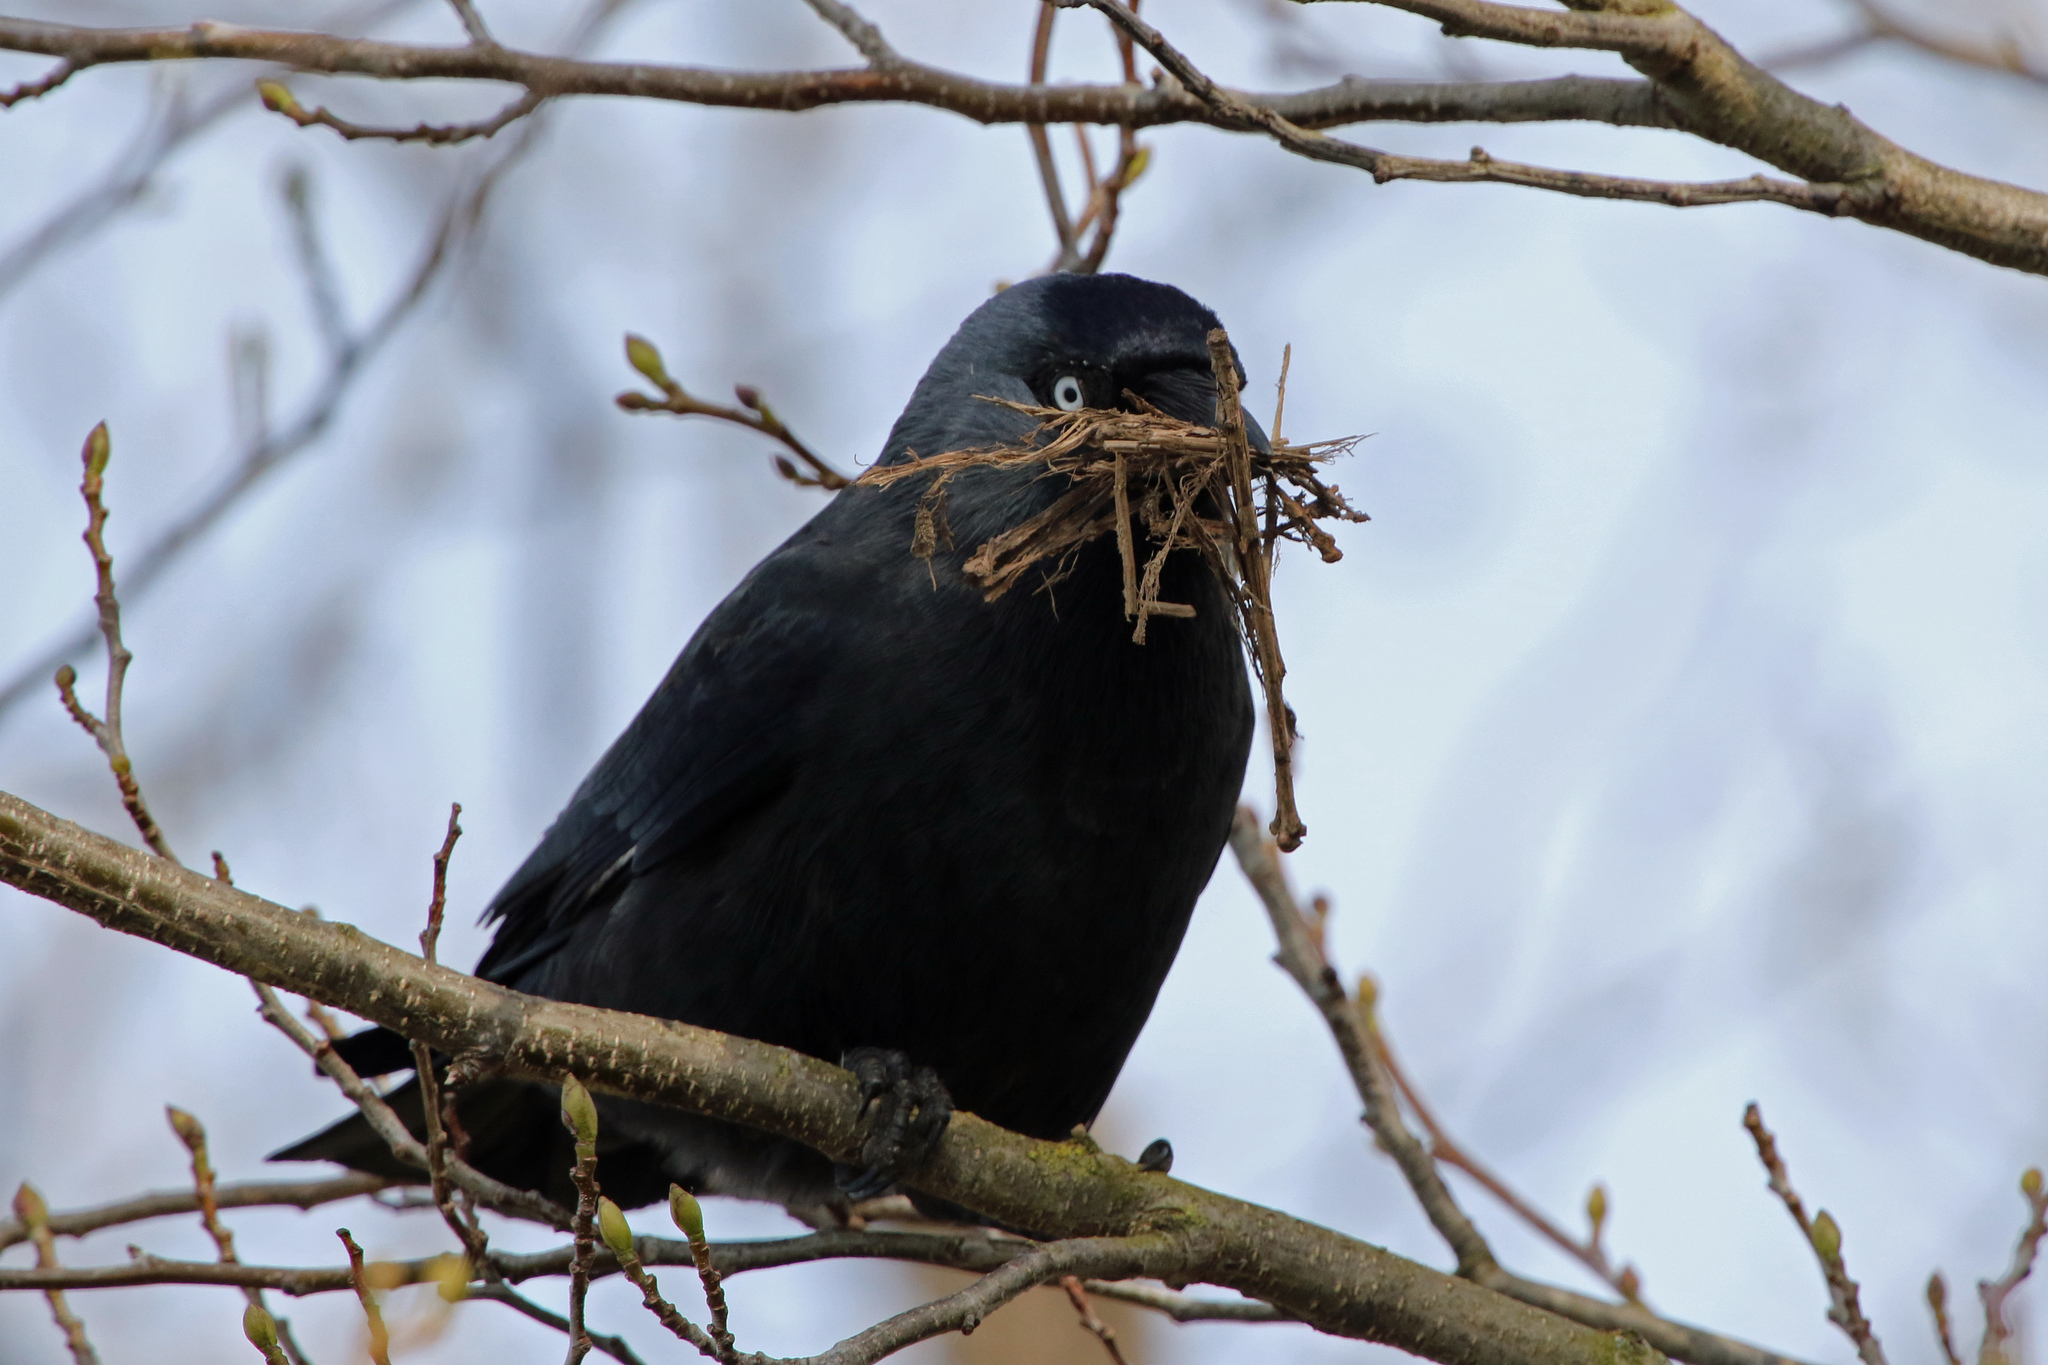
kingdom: Animalia
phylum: Chordata
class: Aves
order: Passeriformes
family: Corvidae
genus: Coloeus
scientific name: Coloeus monedula
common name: Western jackdaw
